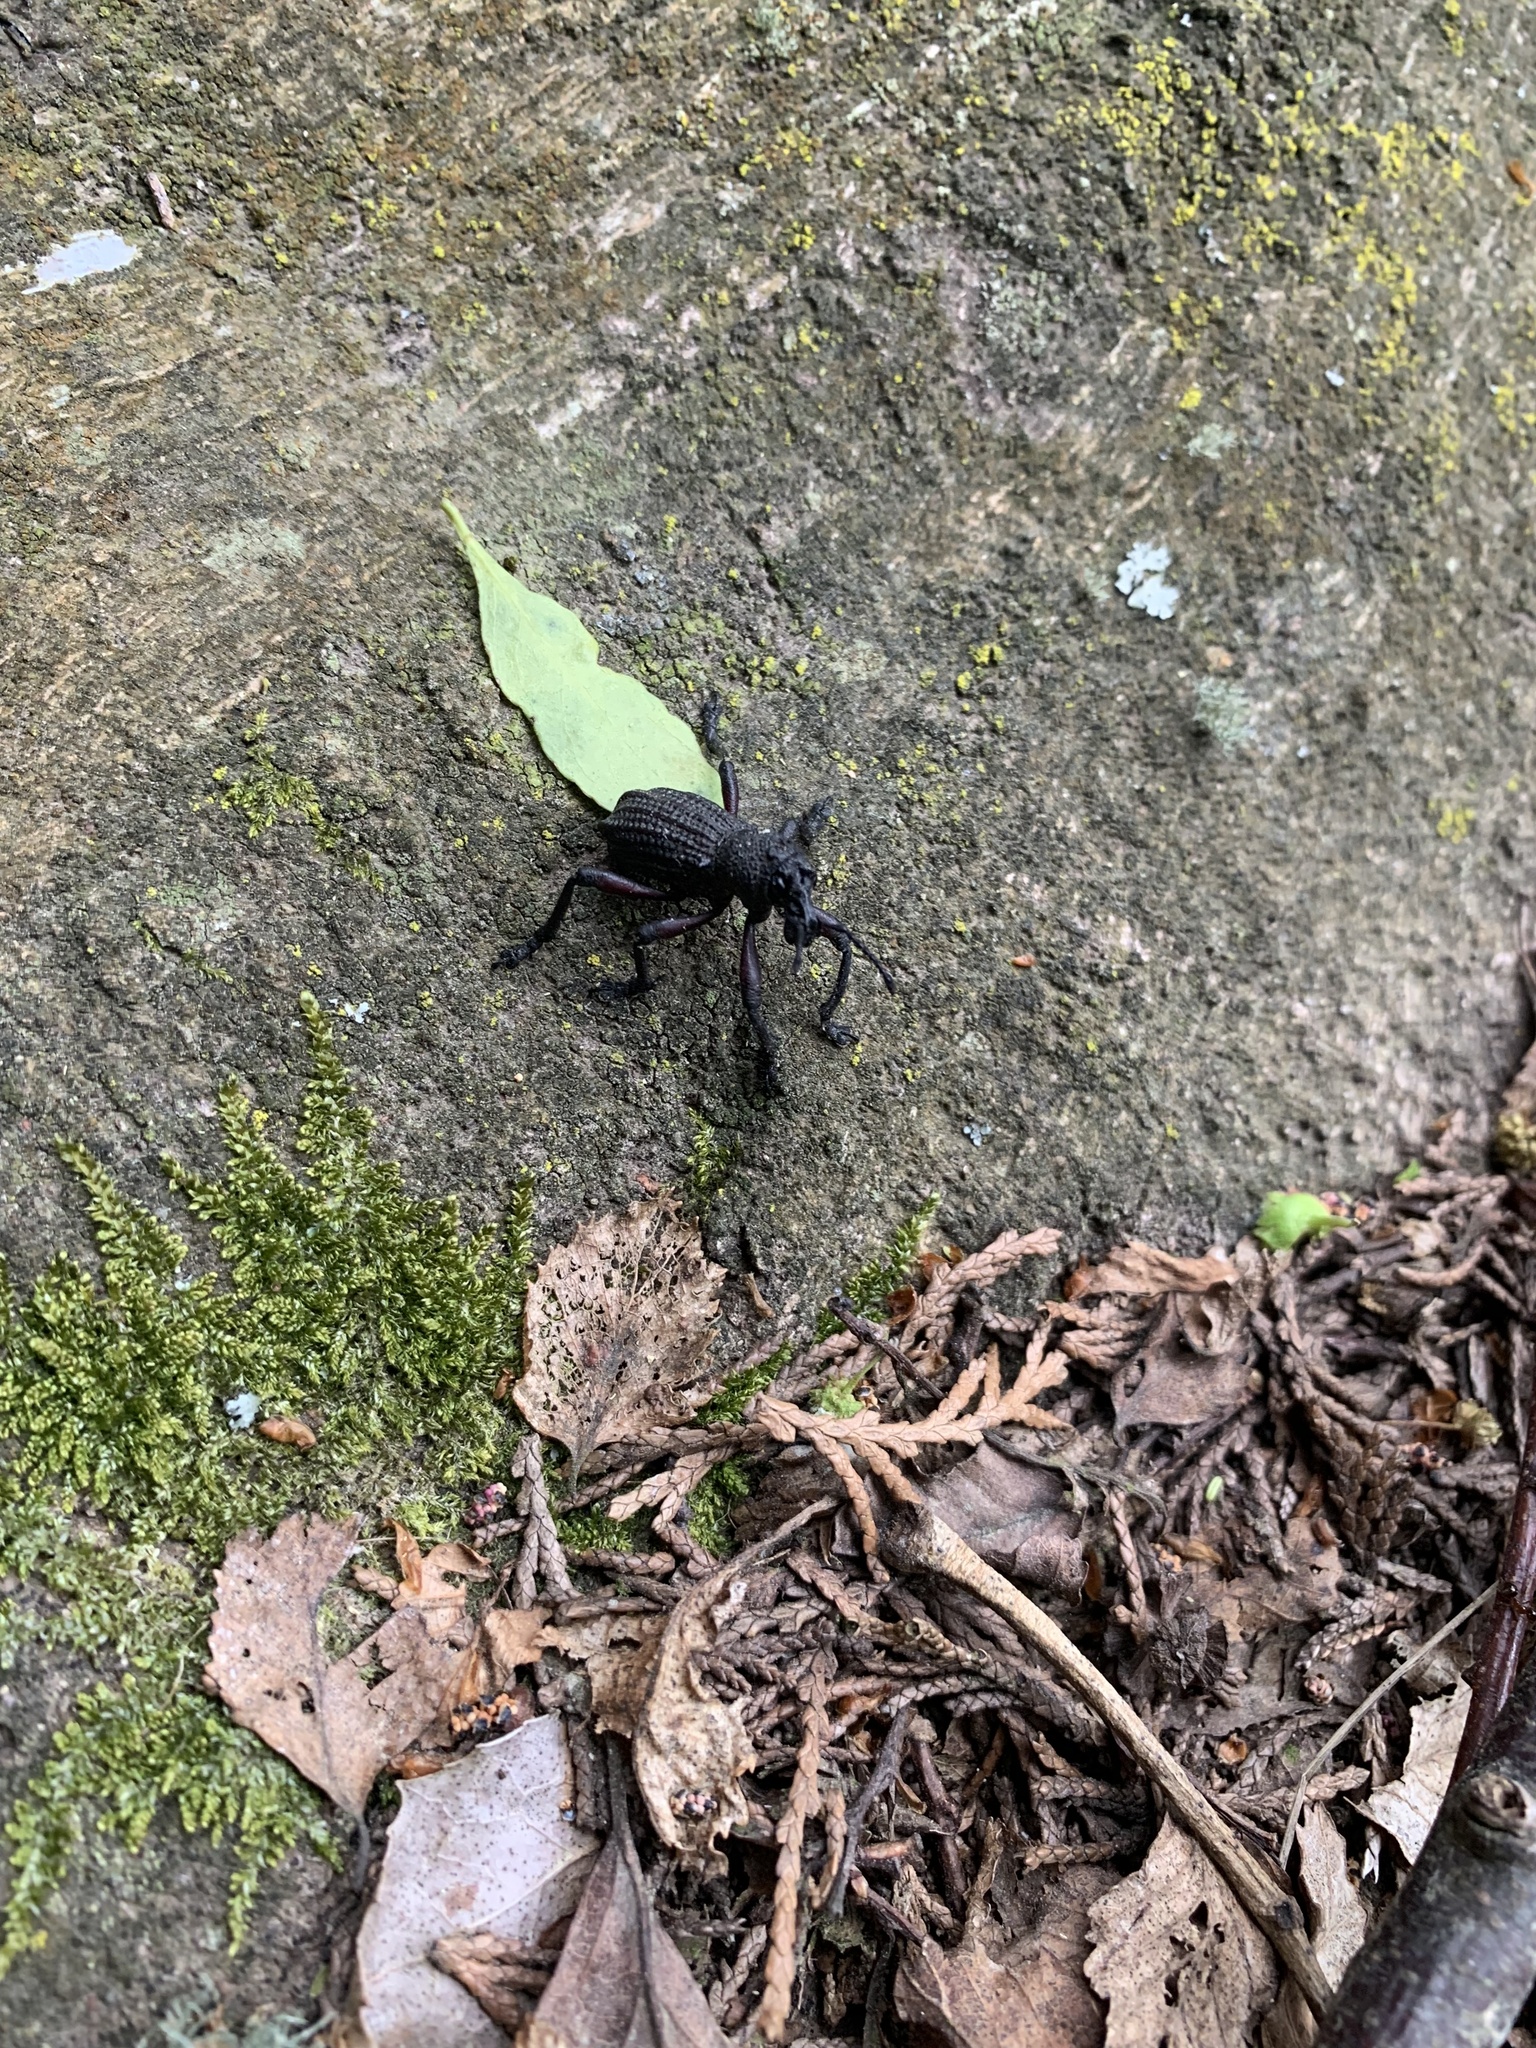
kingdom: Animalia
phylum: Arthropoda
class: Insecta
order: Coleoptera
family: Curculionidae
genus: Aegorhinus
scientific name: Aegorhinus
